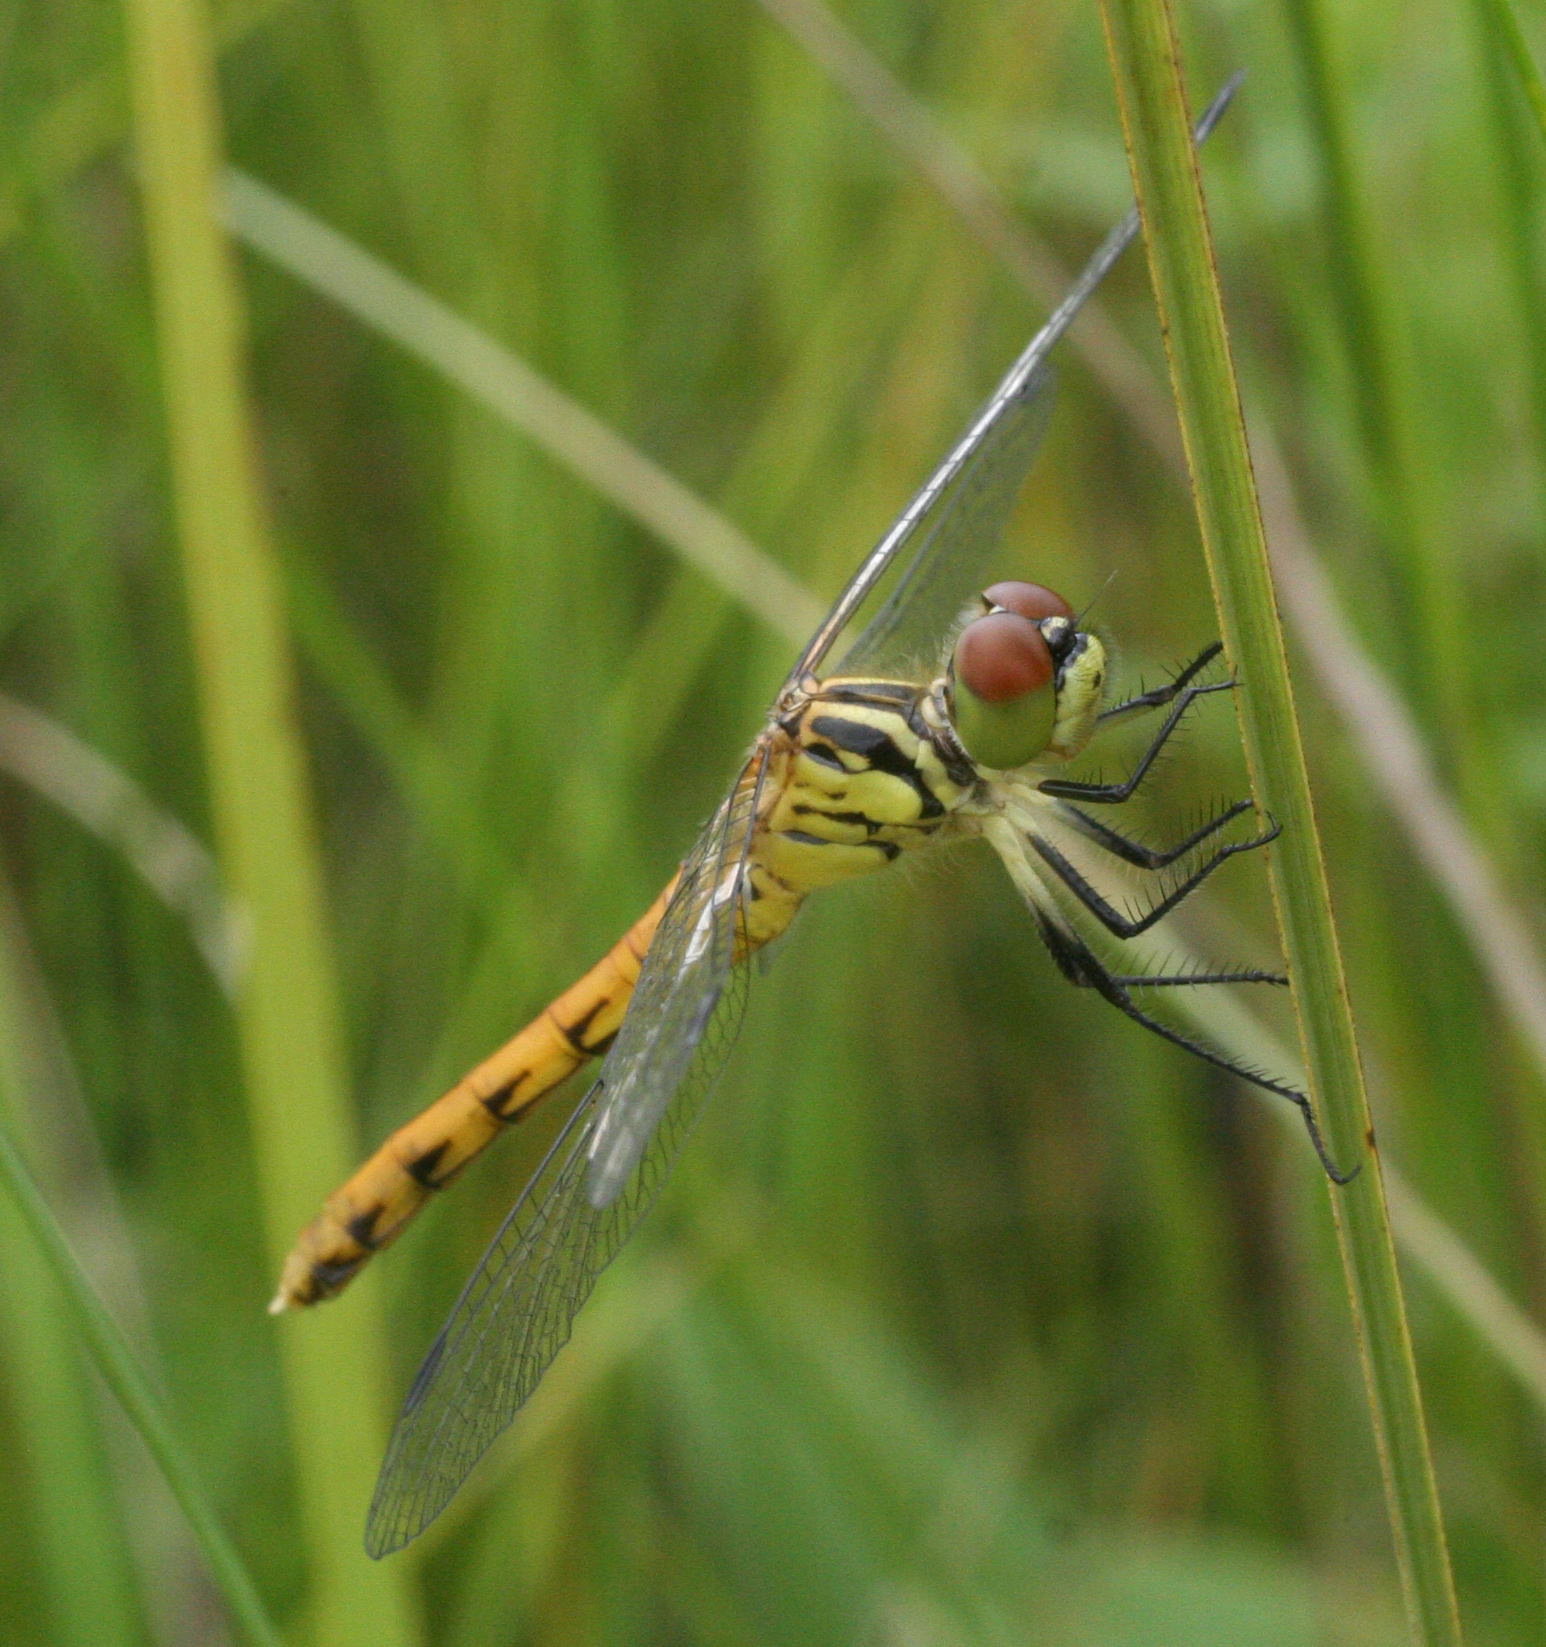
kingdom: Animalia
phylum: Arthropoda
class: Insecta
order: Odonata
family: Libellulidae
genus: Sympetrum
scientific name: Sympetrum kunckeli
